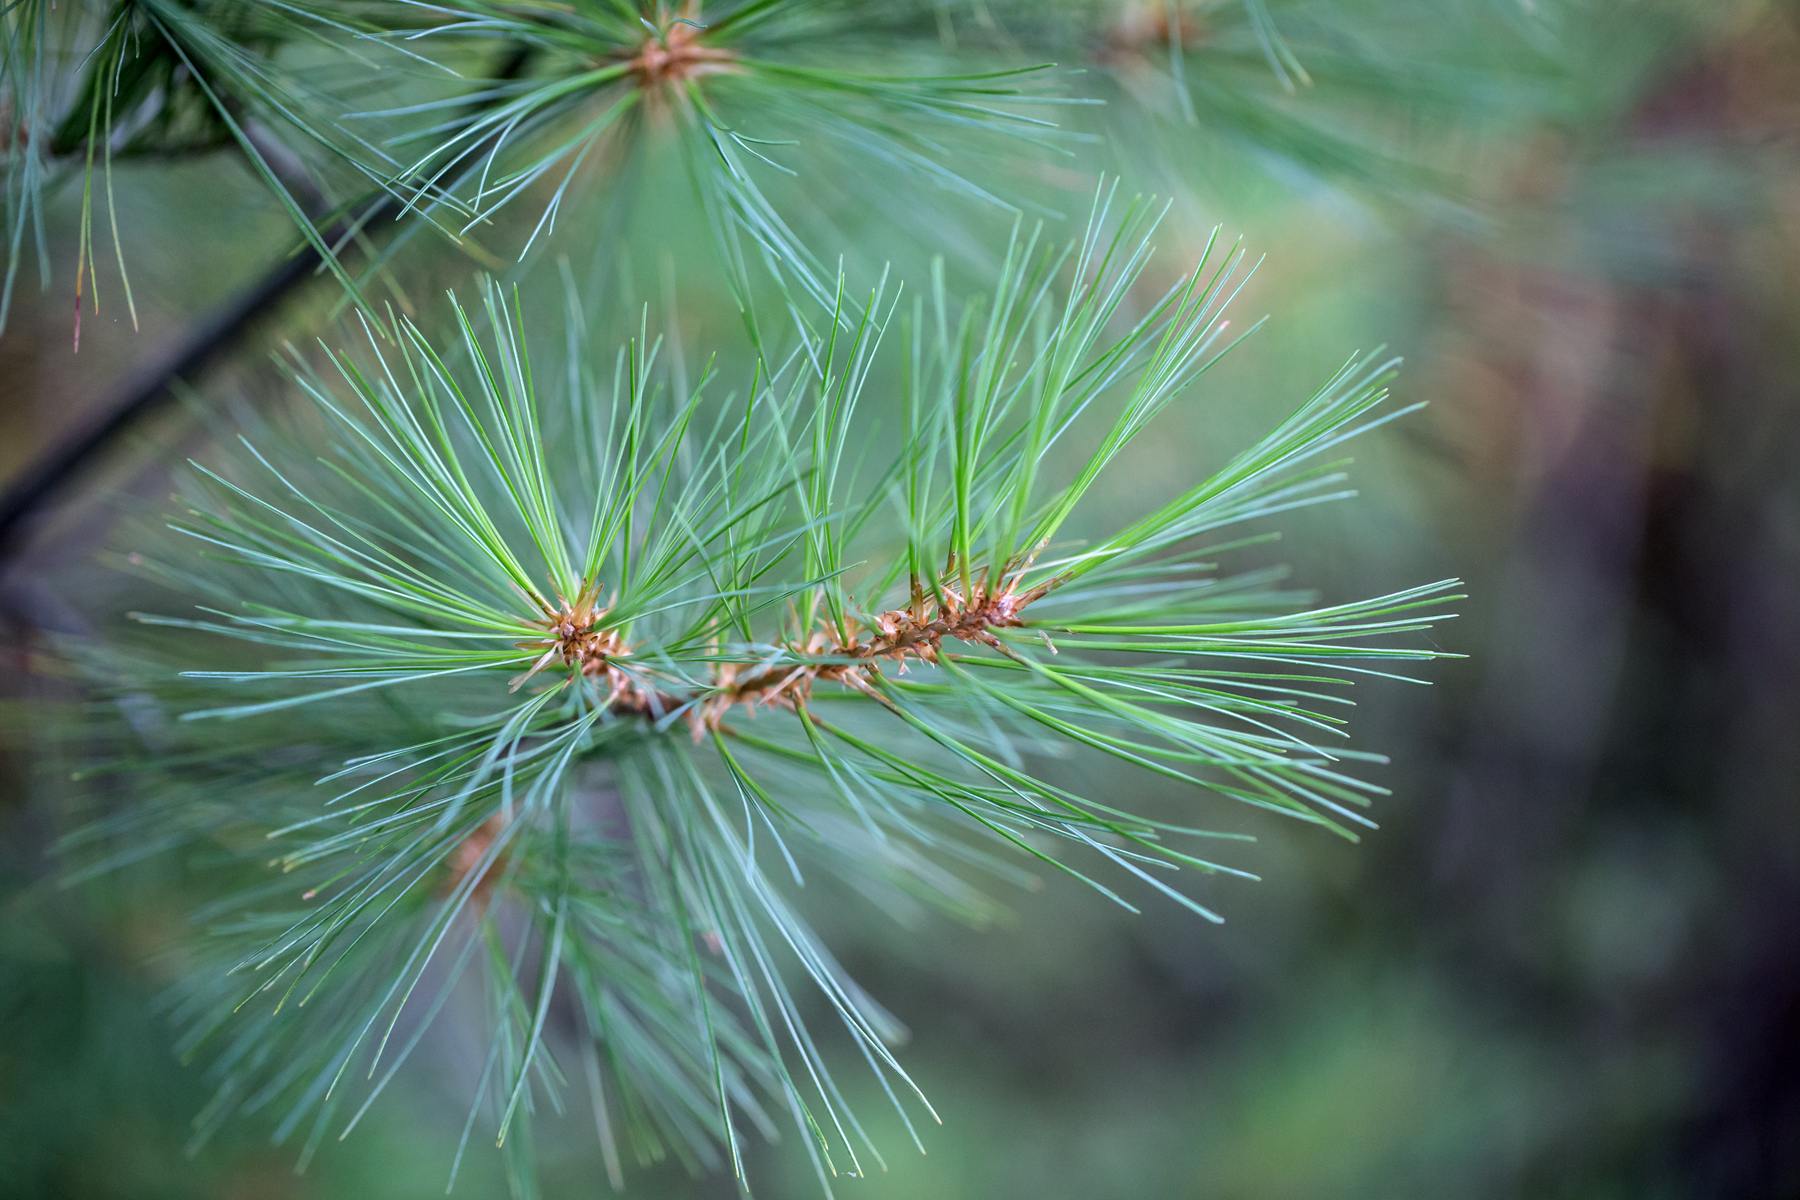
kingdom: Plantae
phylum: Tracheophyta
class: Pinopsida
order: Pinales
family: Pinaceae
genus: Pinus
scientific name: Pinus strobus
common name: Weymouth pine
